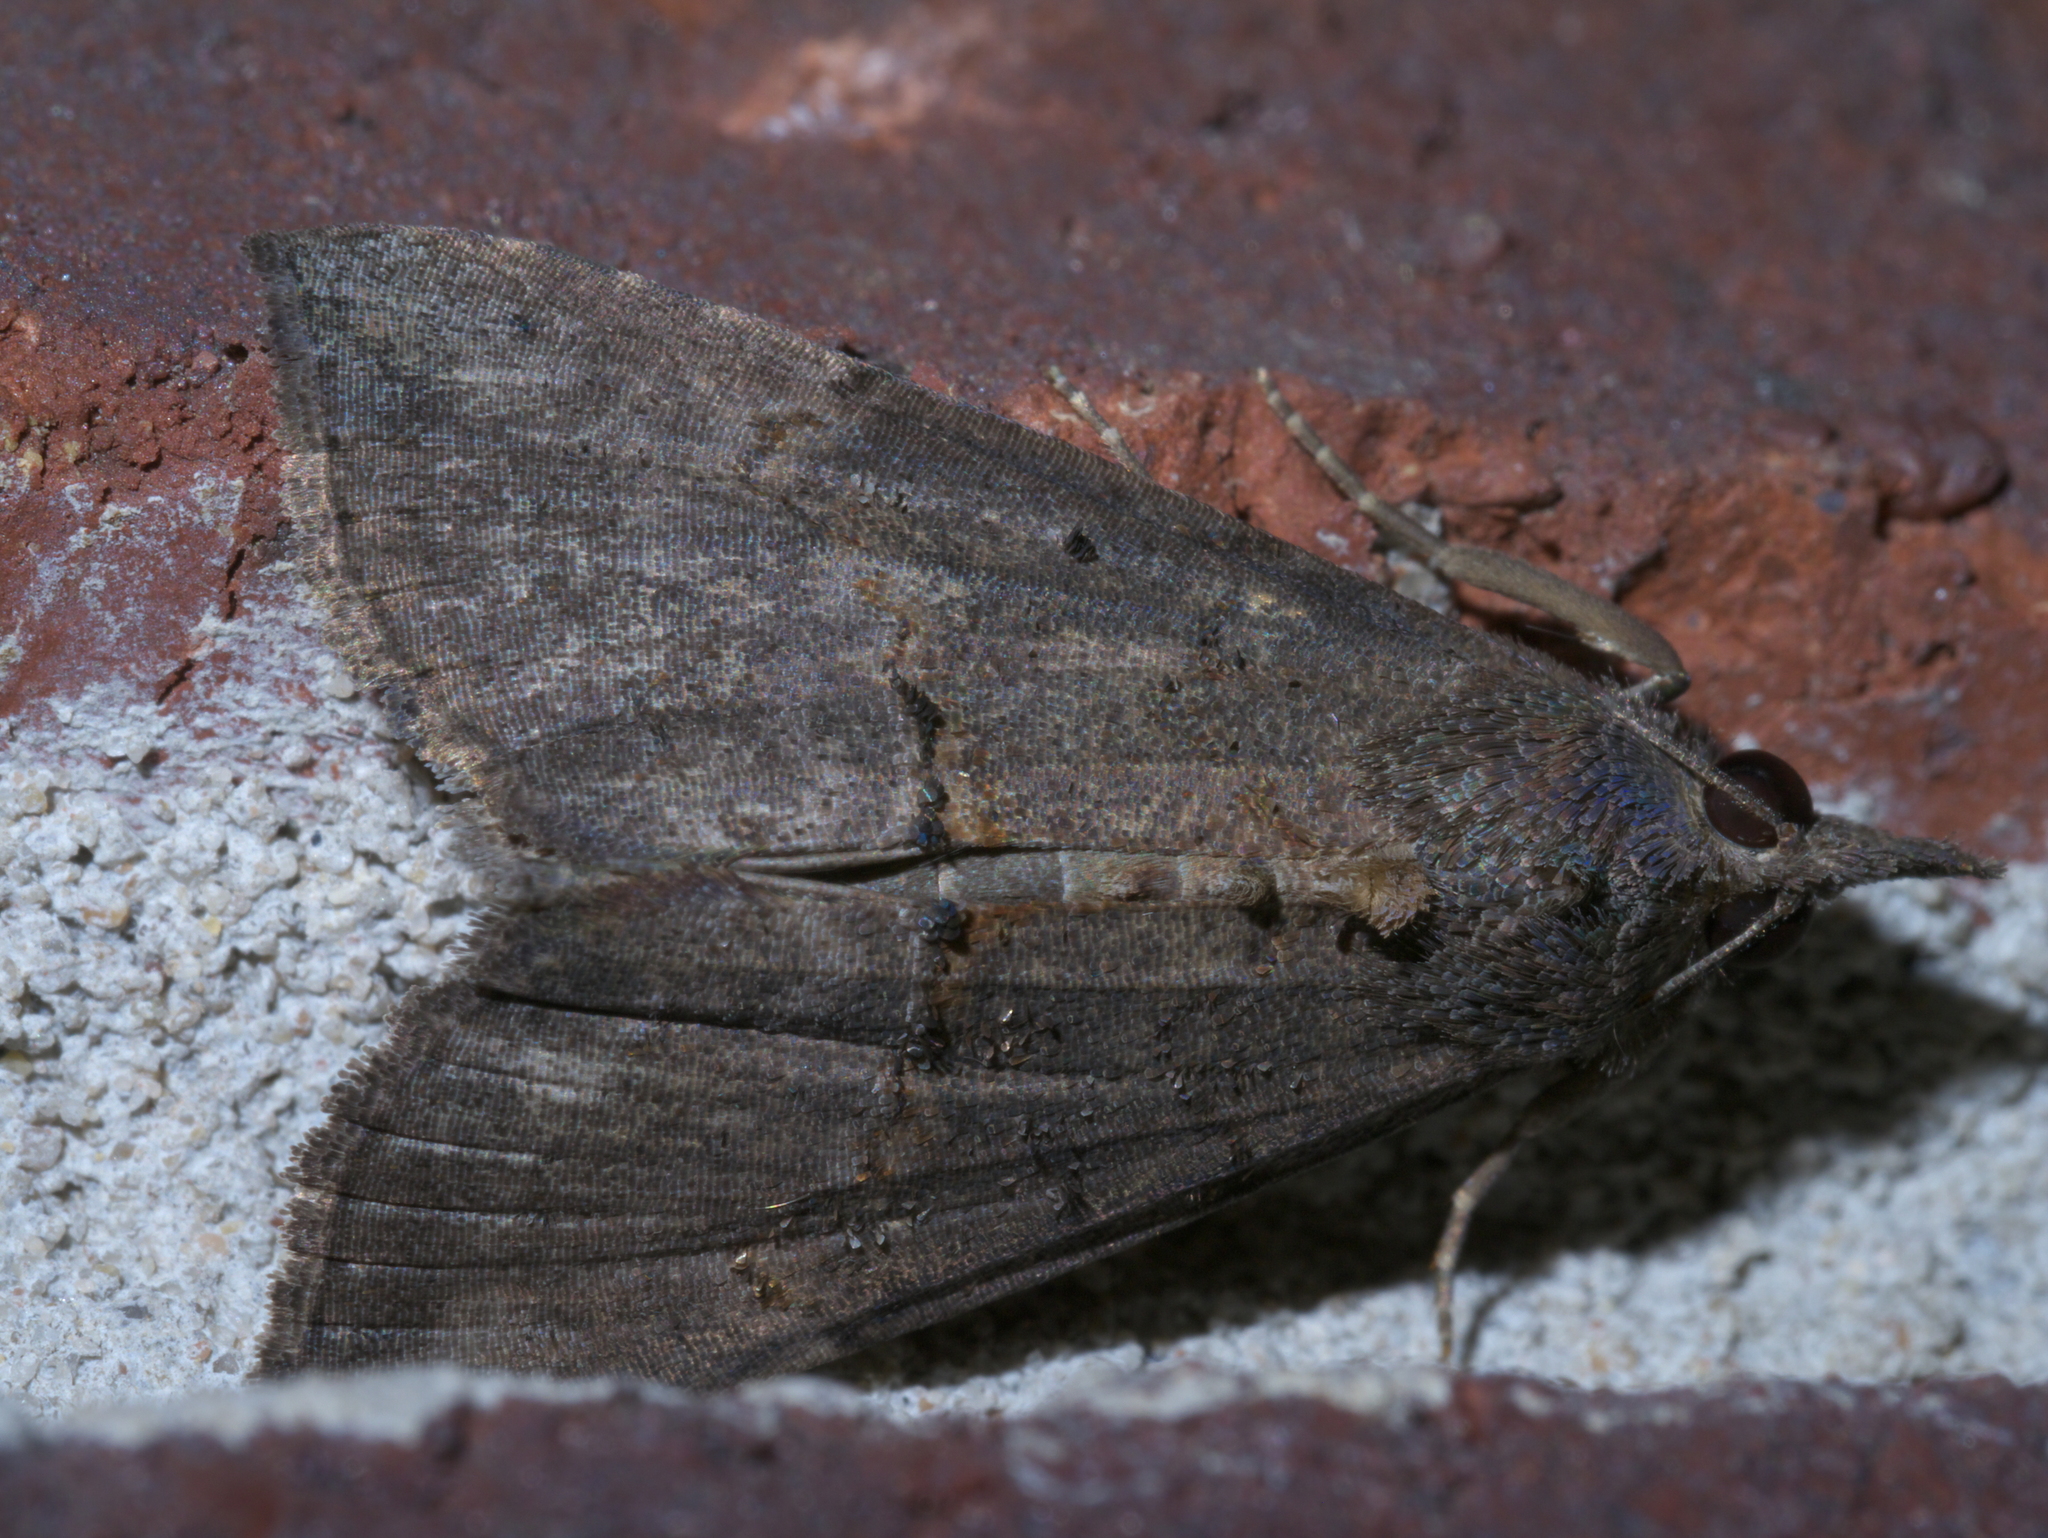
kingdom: Animalia
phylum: Arthropoda
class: Insecta
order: Lepidoptera
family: Erebidae
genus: Hypena
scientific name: Hypena scabra
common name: Green cloverworm
